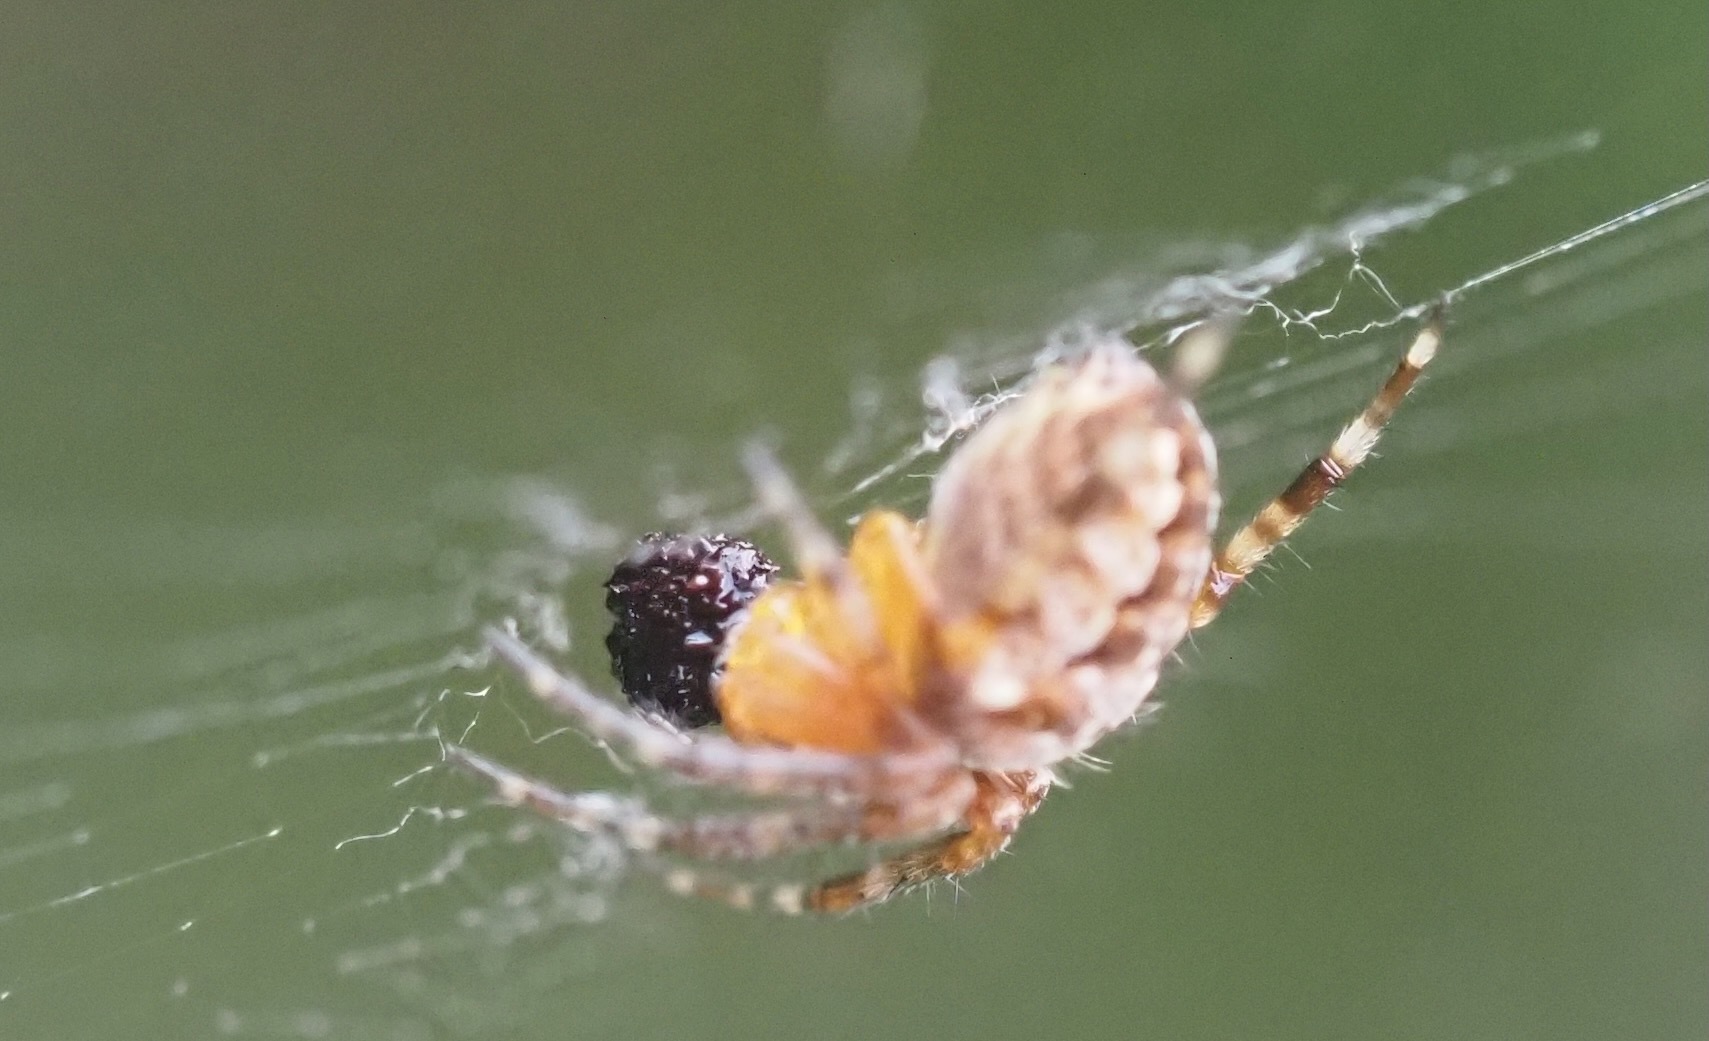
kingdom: Animalia
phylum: Arthropoda
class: Arachnida
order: Araneae
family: Araneidae
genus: Araneus
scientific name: Araneus diadematus
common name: Cross orbweaver
